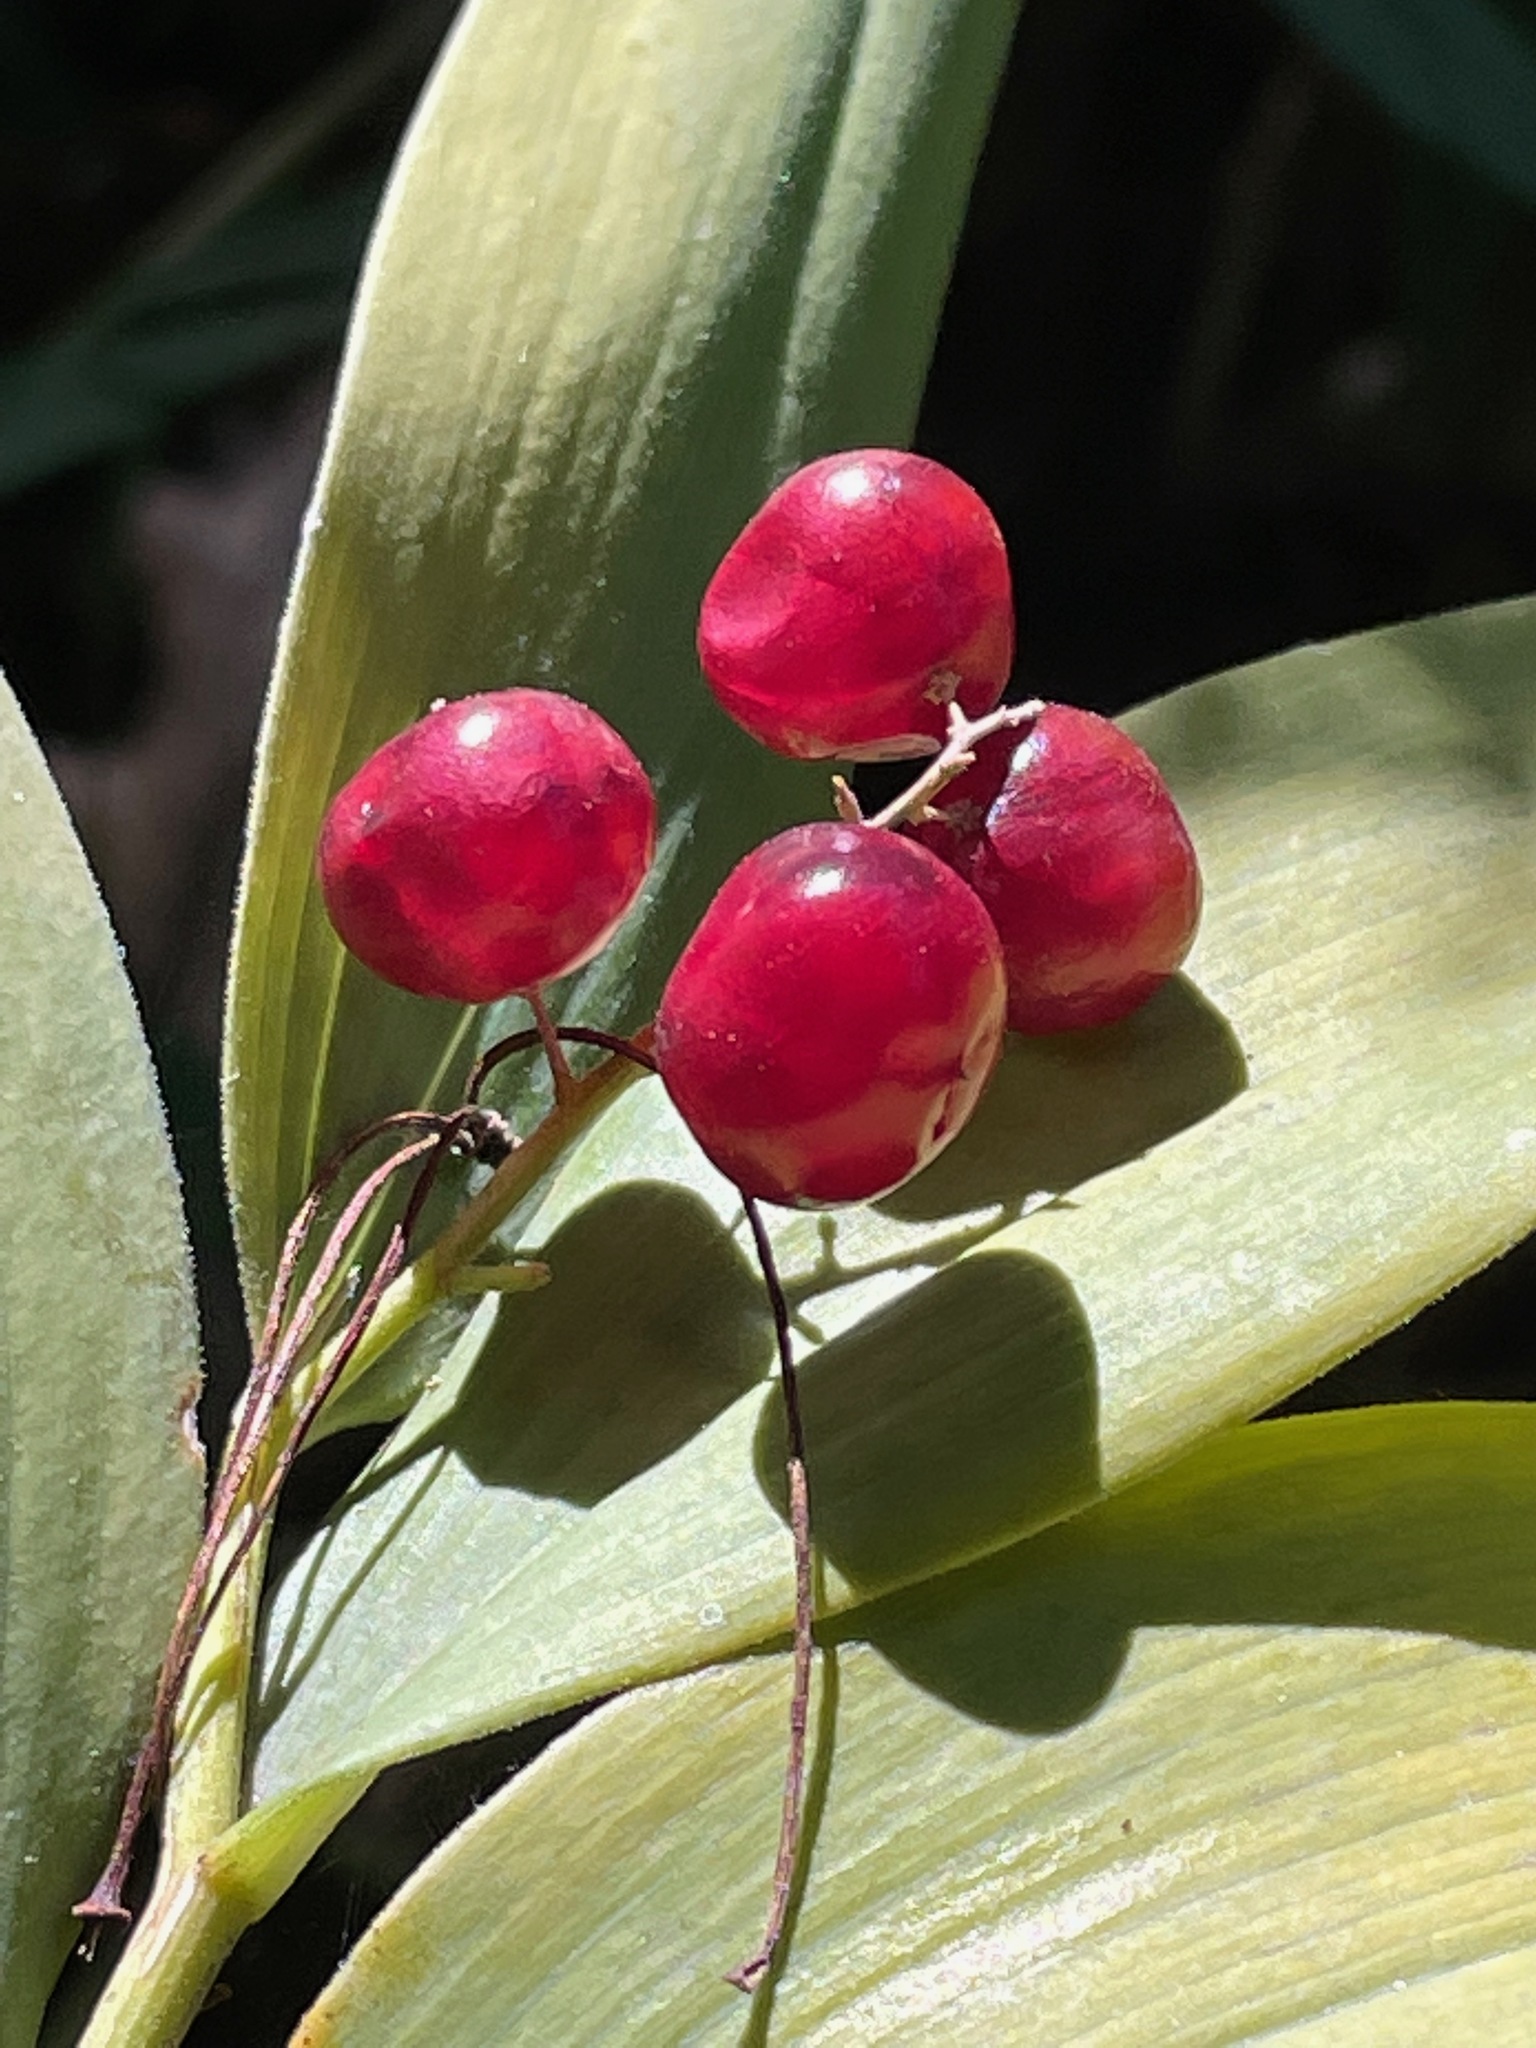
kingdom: Plantae
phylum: Tracheophyta
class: Liliopsida
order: Asparagales
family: Asparagaceae
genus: Maianthemum
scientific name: Maianthemum stellatum
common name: Little false solomon's seal
